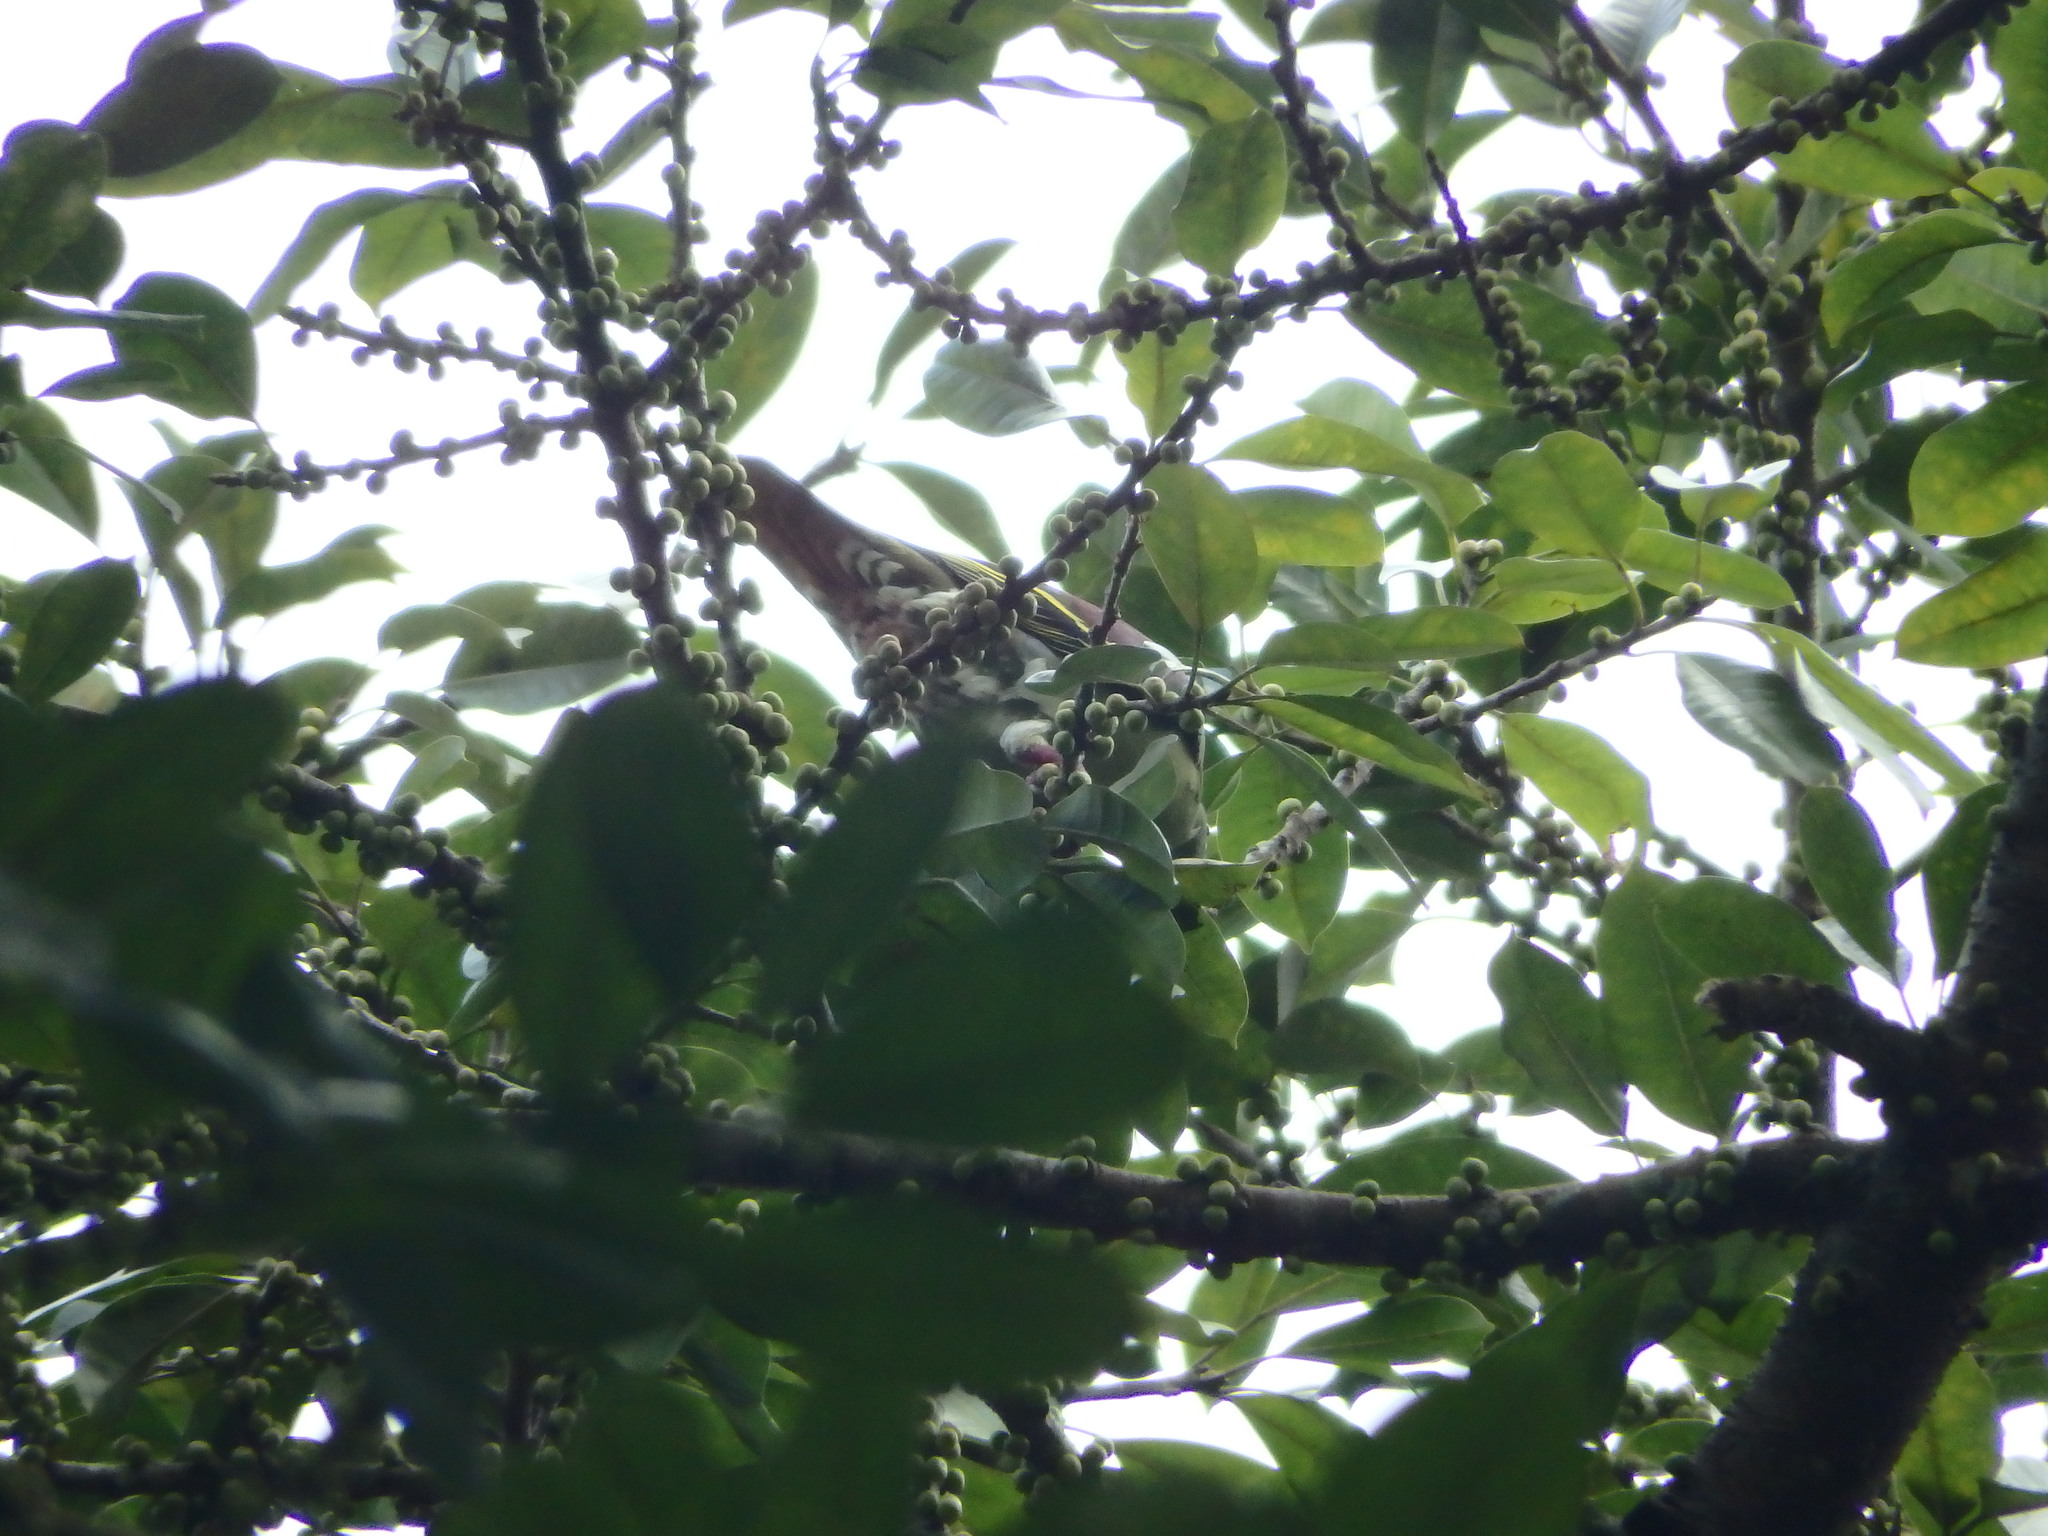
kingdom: Animalia
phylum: Chordata
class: Aves
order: Columbiformes
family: Columbidae
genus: Treron
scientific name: Treron curvirostra
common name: Thick-billed green pigeon
